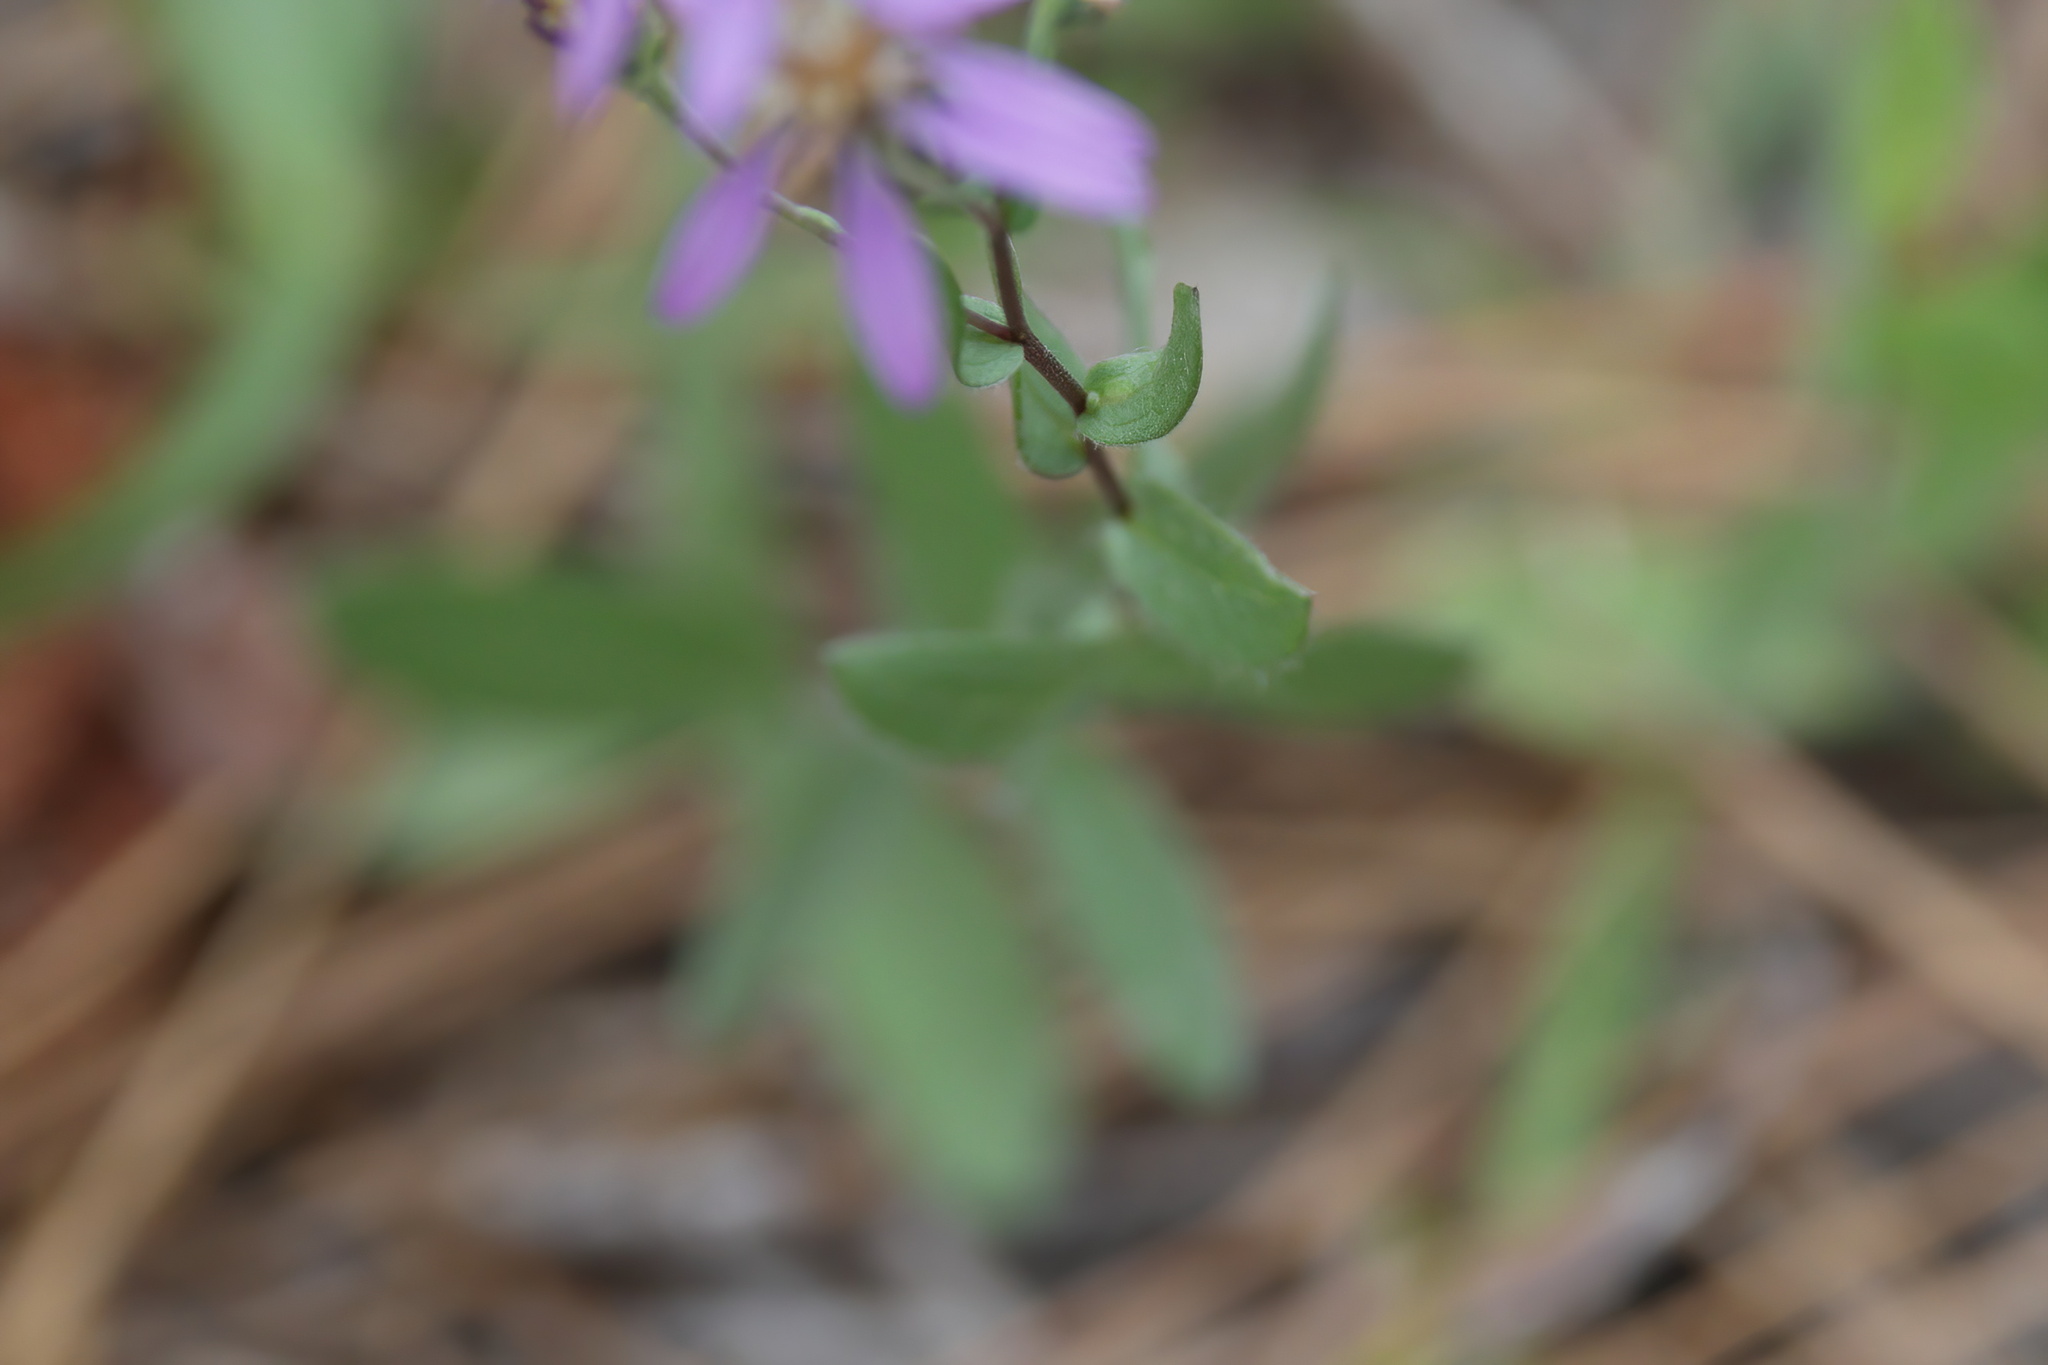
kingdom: Plantae
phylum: Tracheophyta
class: Magnoliopsida
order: Asterales
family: Asteraceae
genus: Symphyotrichum
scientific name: Symphyotrichum concolor
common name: Eastern silver aster
